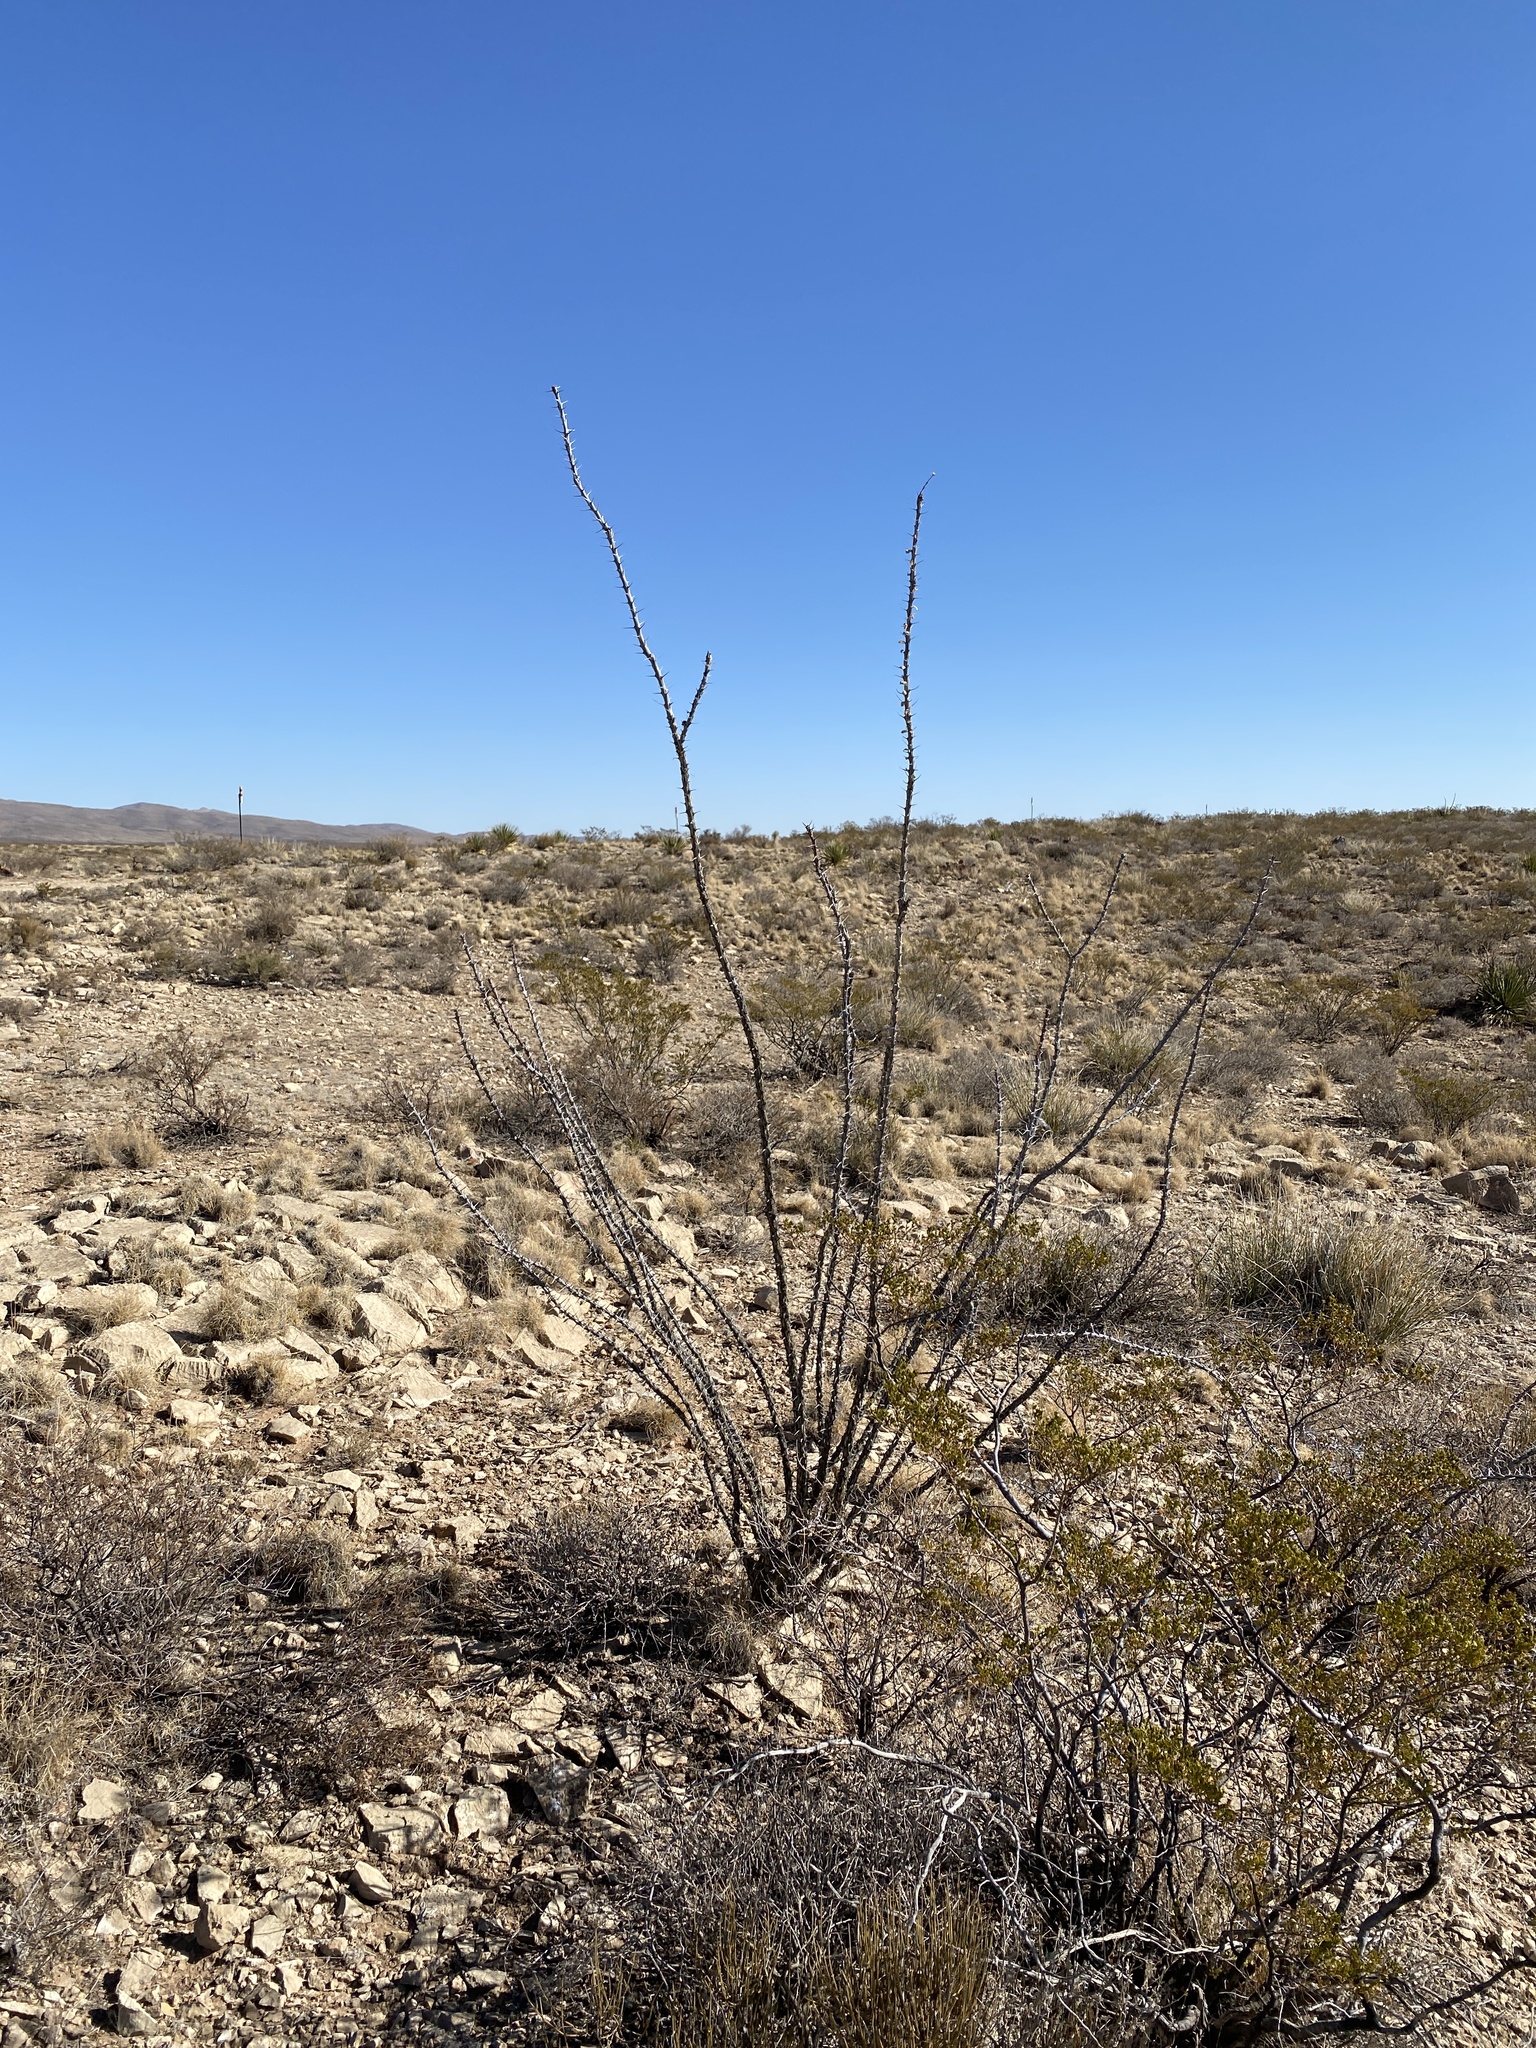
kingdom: Plantae
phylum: Tracheophyta
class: Magnoliopsida
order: Ericales
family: Fouquieriaceae
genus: Fouquieria
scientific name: Fouquieria splendens
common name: Vine-cactus
